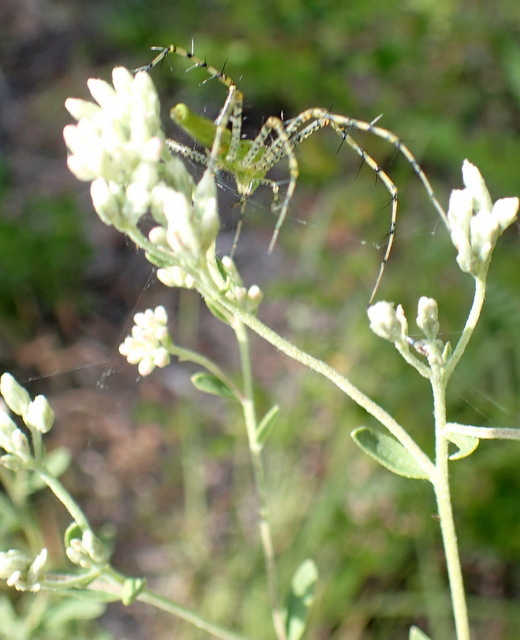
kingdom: Animalia
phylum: Arthropoda
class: Arachnida
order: Araneae
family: Oxyopidae
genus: Peucetia
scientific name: Peucetia viridans
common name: Lynx spiders
